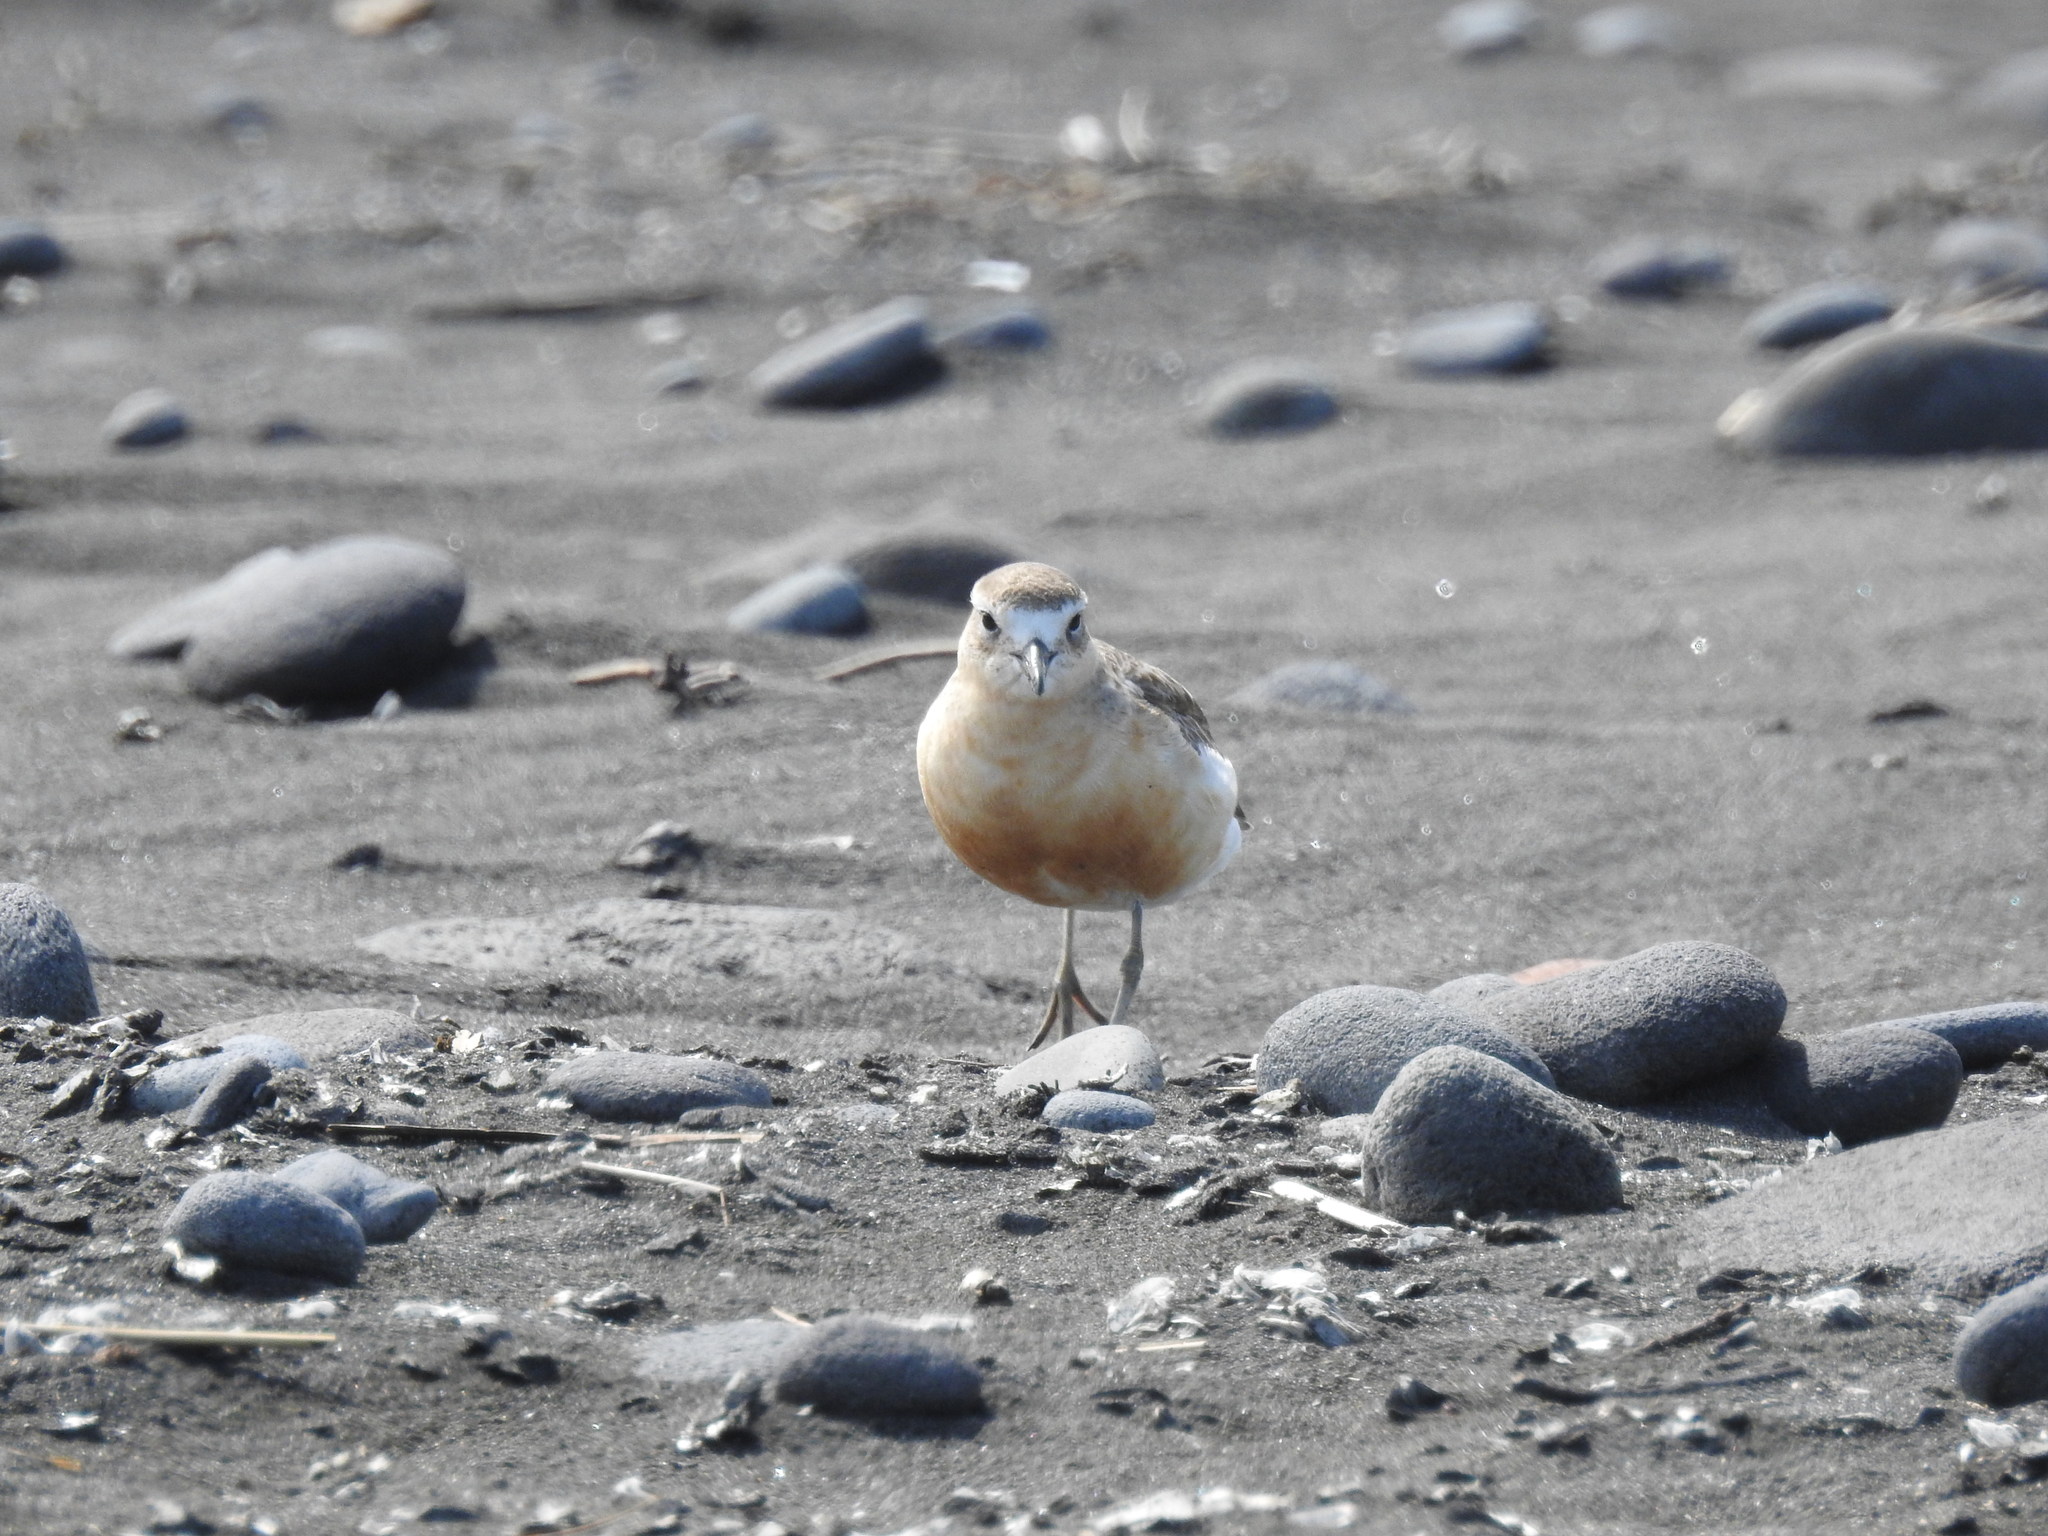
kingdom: Animalia
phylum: Chordata
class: Aves
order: Charadriiformes
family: Charadriidae
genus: Anarhynchus
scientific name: Anarhynchus
